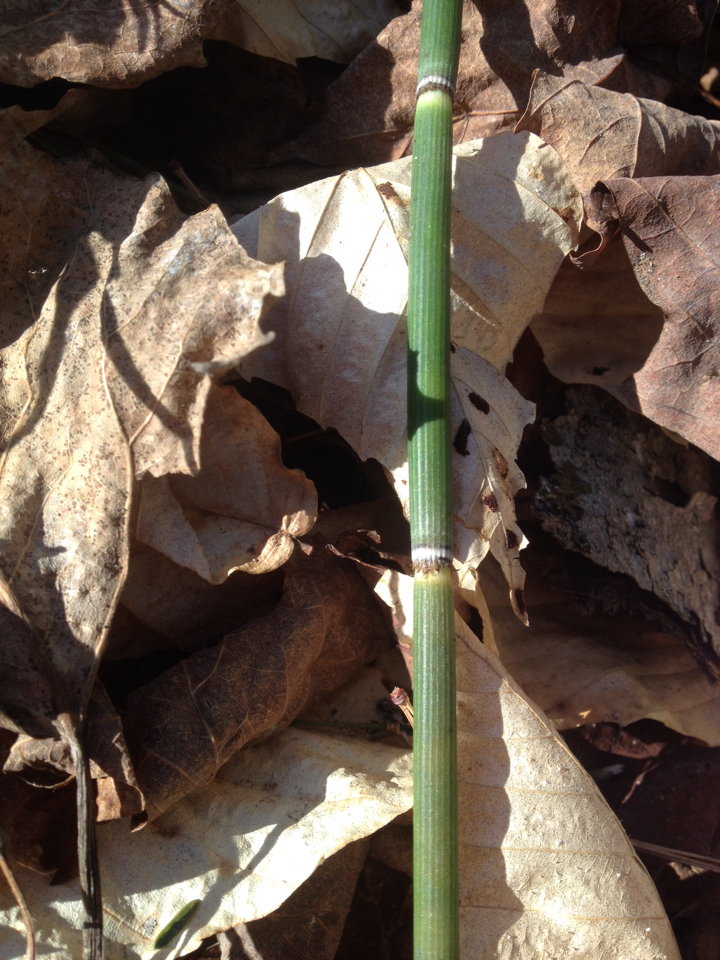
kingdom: Plantae
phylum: Tracheophyta
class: Polypodiopsida
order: Equisetales
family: Equisetaceae
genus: Equisetum
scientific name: Equisetum hyemale
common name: Rough horsetail
